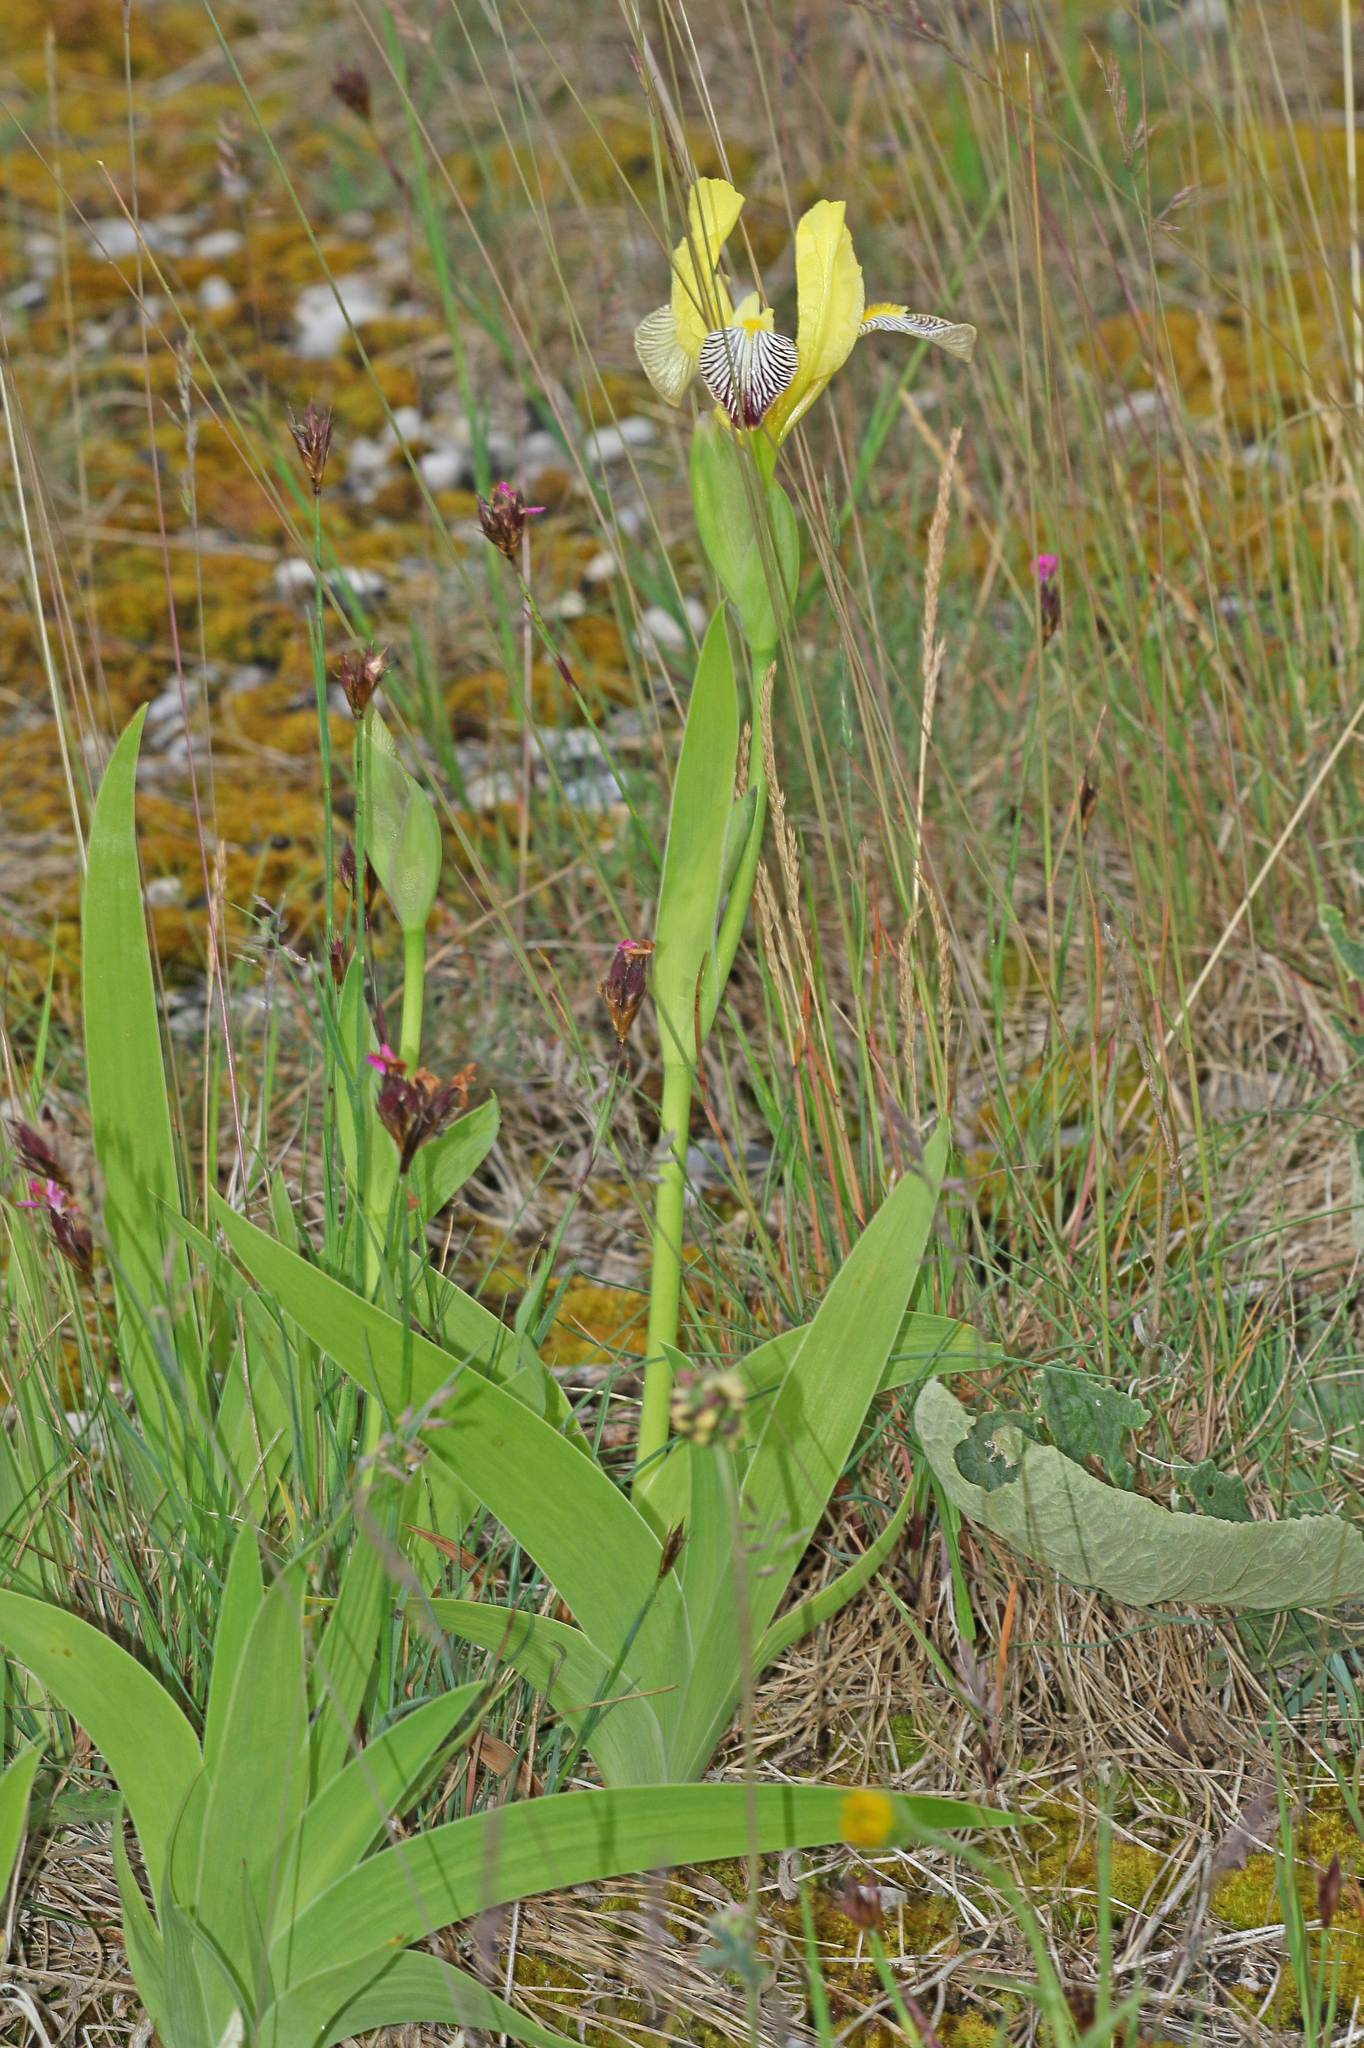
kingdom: Plantae
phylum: Tracheophyta
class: Liliopsida
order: Asparagales
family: Iridaceae
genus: Iris
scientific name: Iris variegata
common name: Hungarian iris
